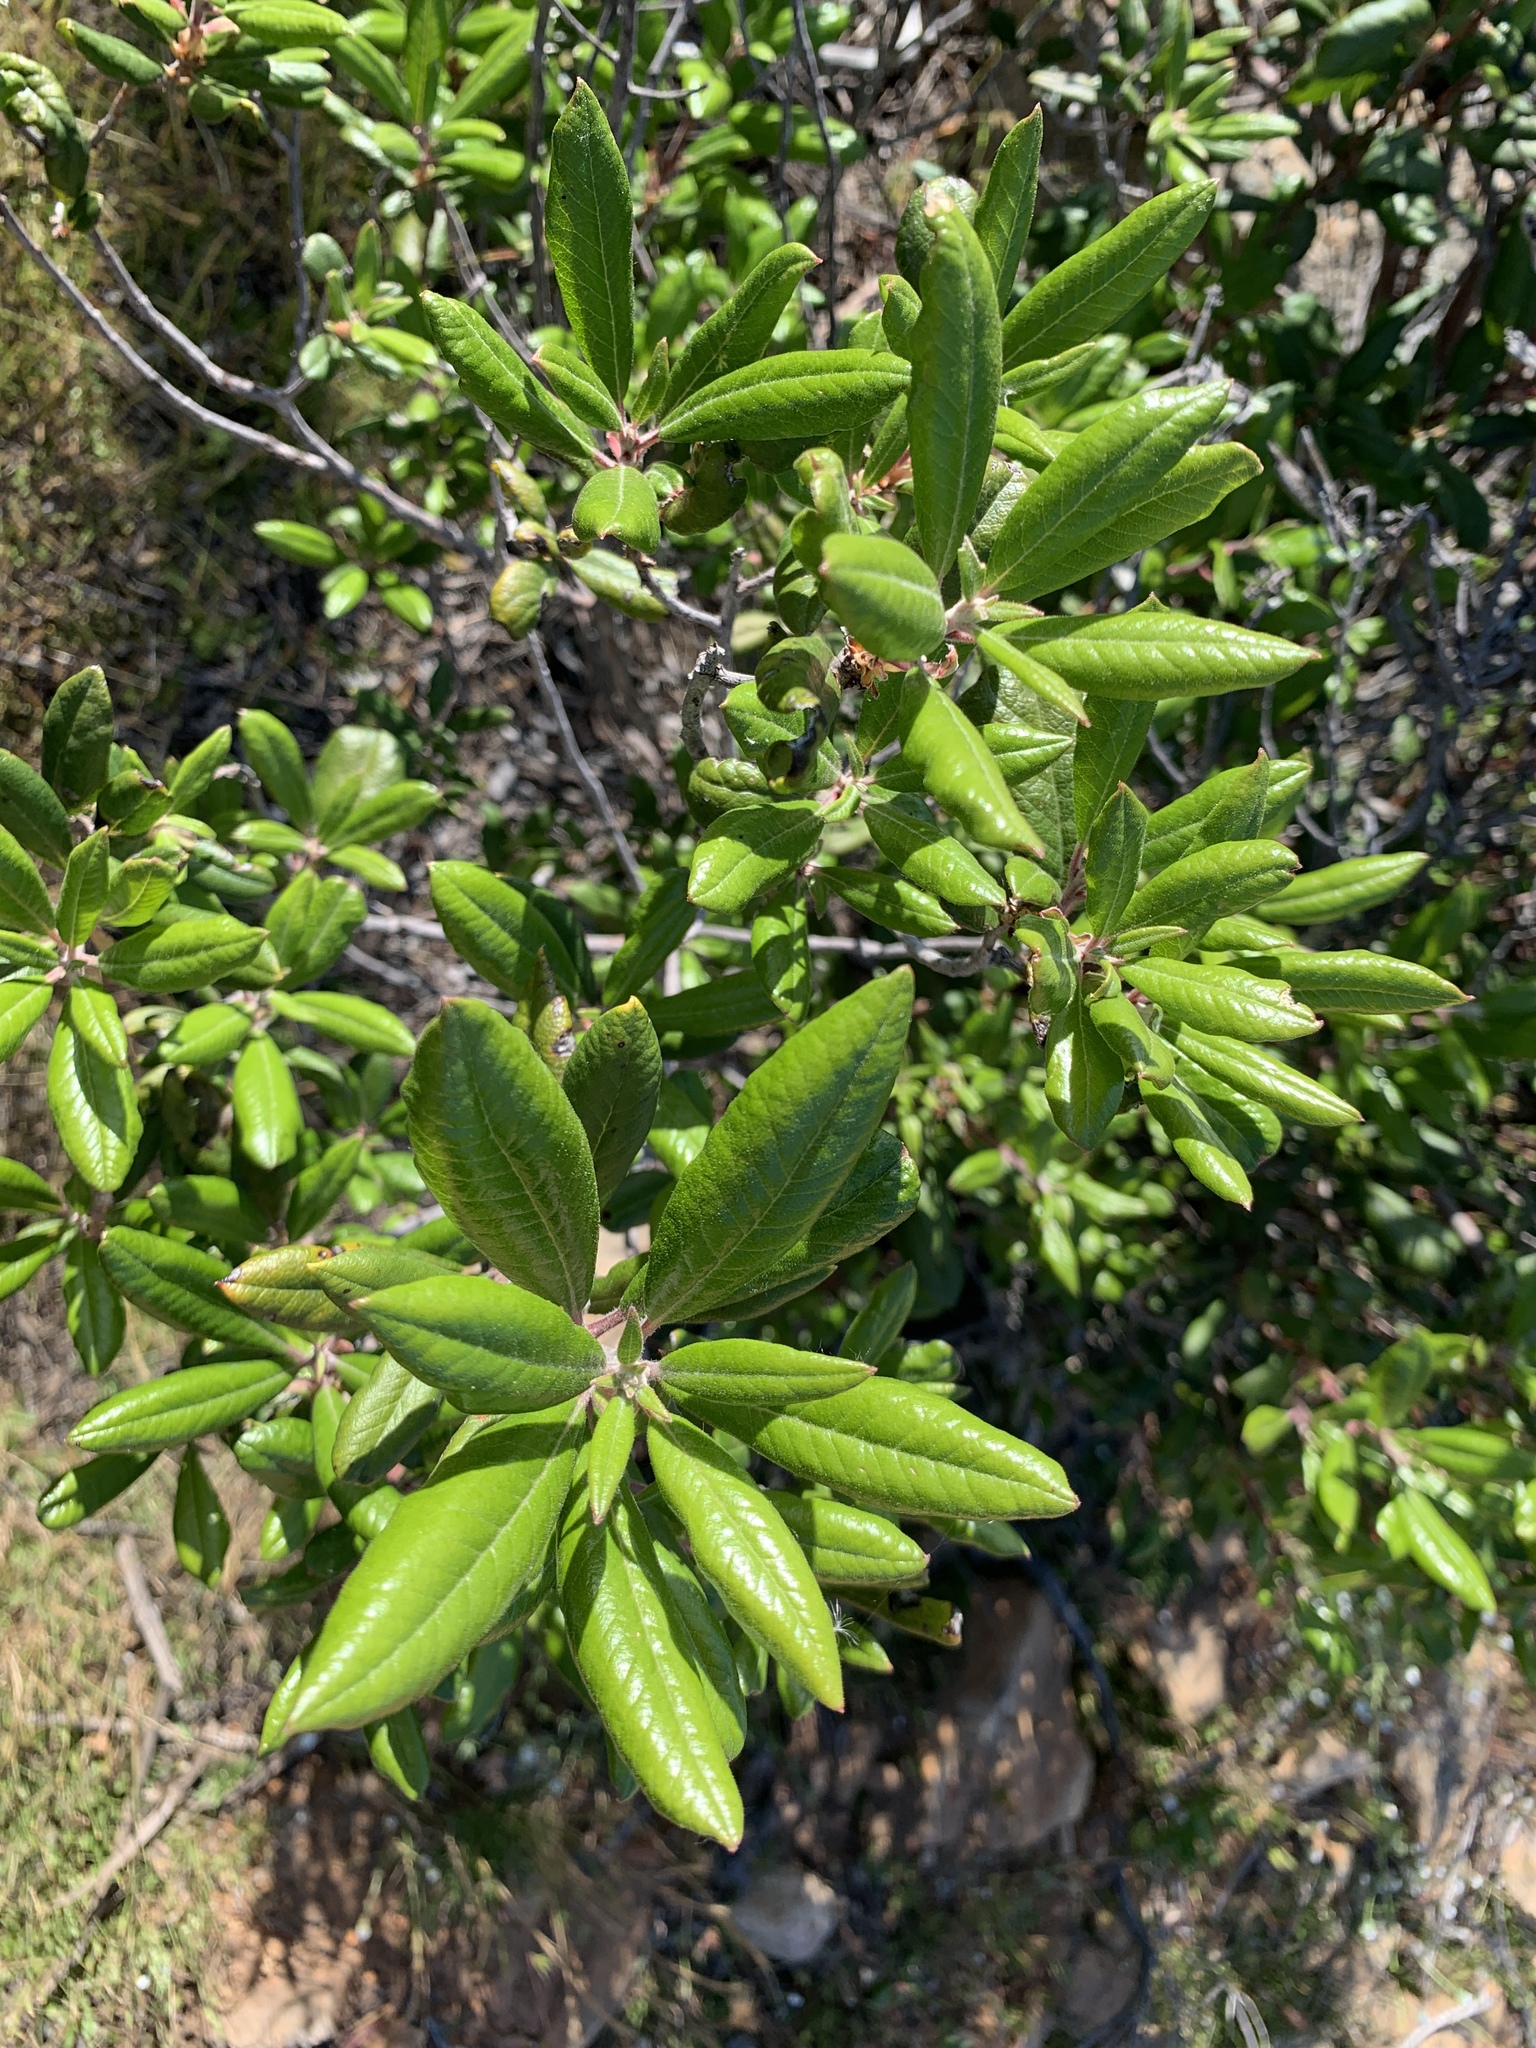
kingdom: Plantae
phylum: Tracheophyta
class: Magnoliopsida
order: Ericales
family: Ericaceae
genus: Arctostaphylos
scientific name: Arctostaphylos bicolor
